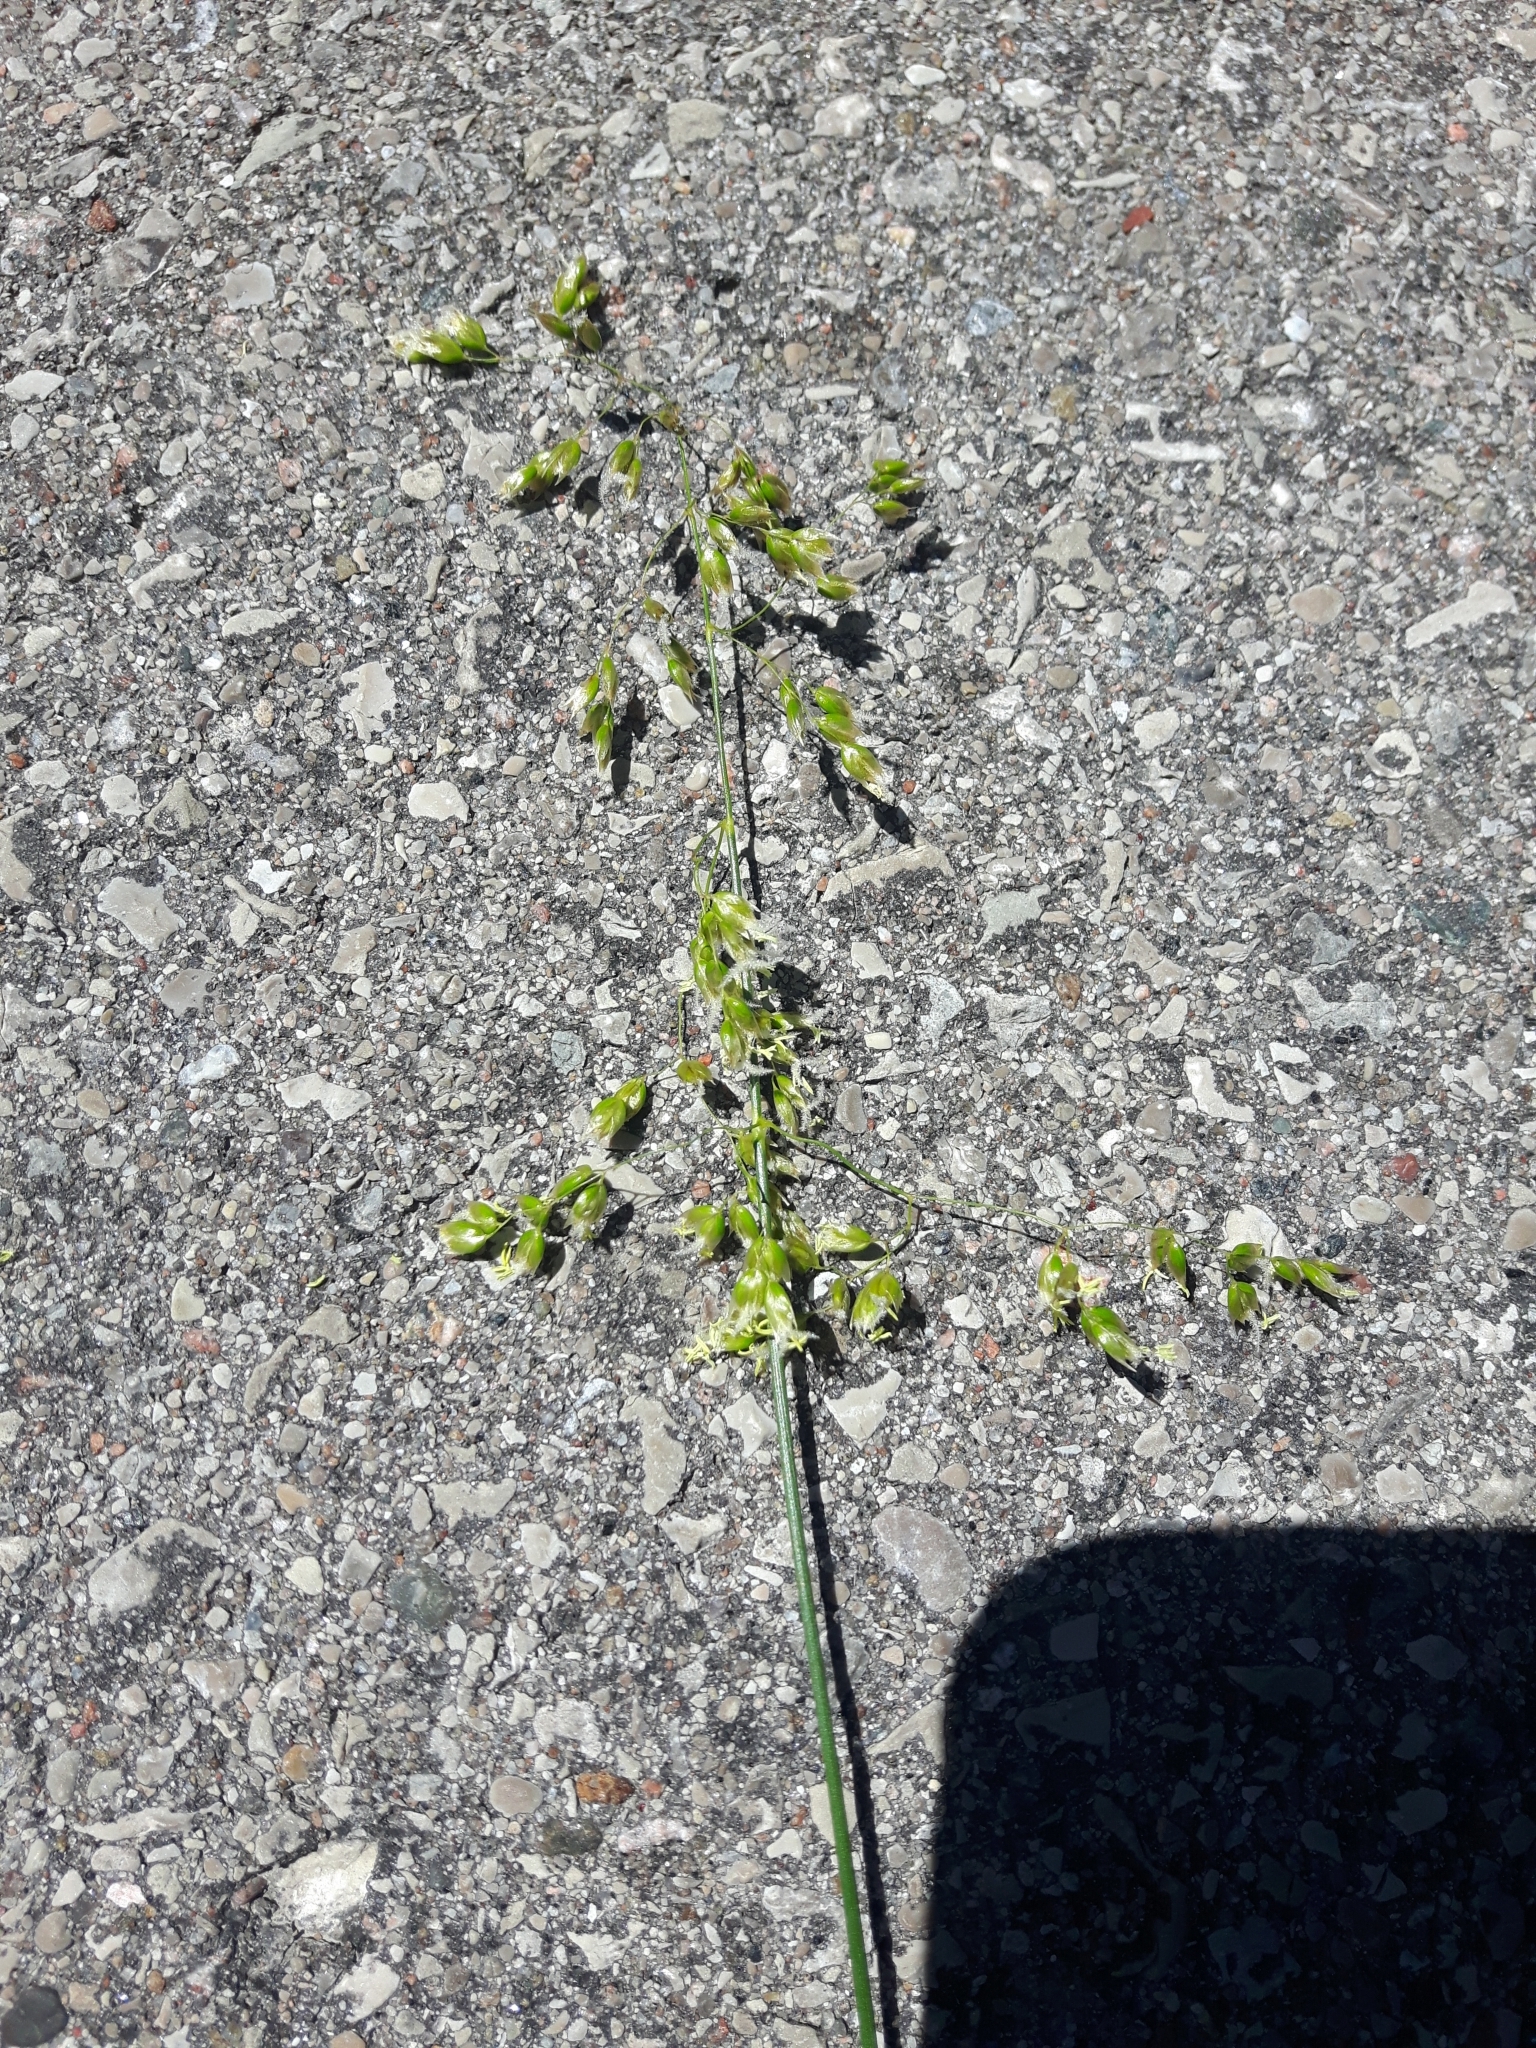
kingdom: Plantae
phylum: Tracheophyta
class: Liliopsida
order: Poales
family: Poaceae
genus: Anthoxanthum
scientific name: Anthoxanthum nitens
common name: Holy grass
